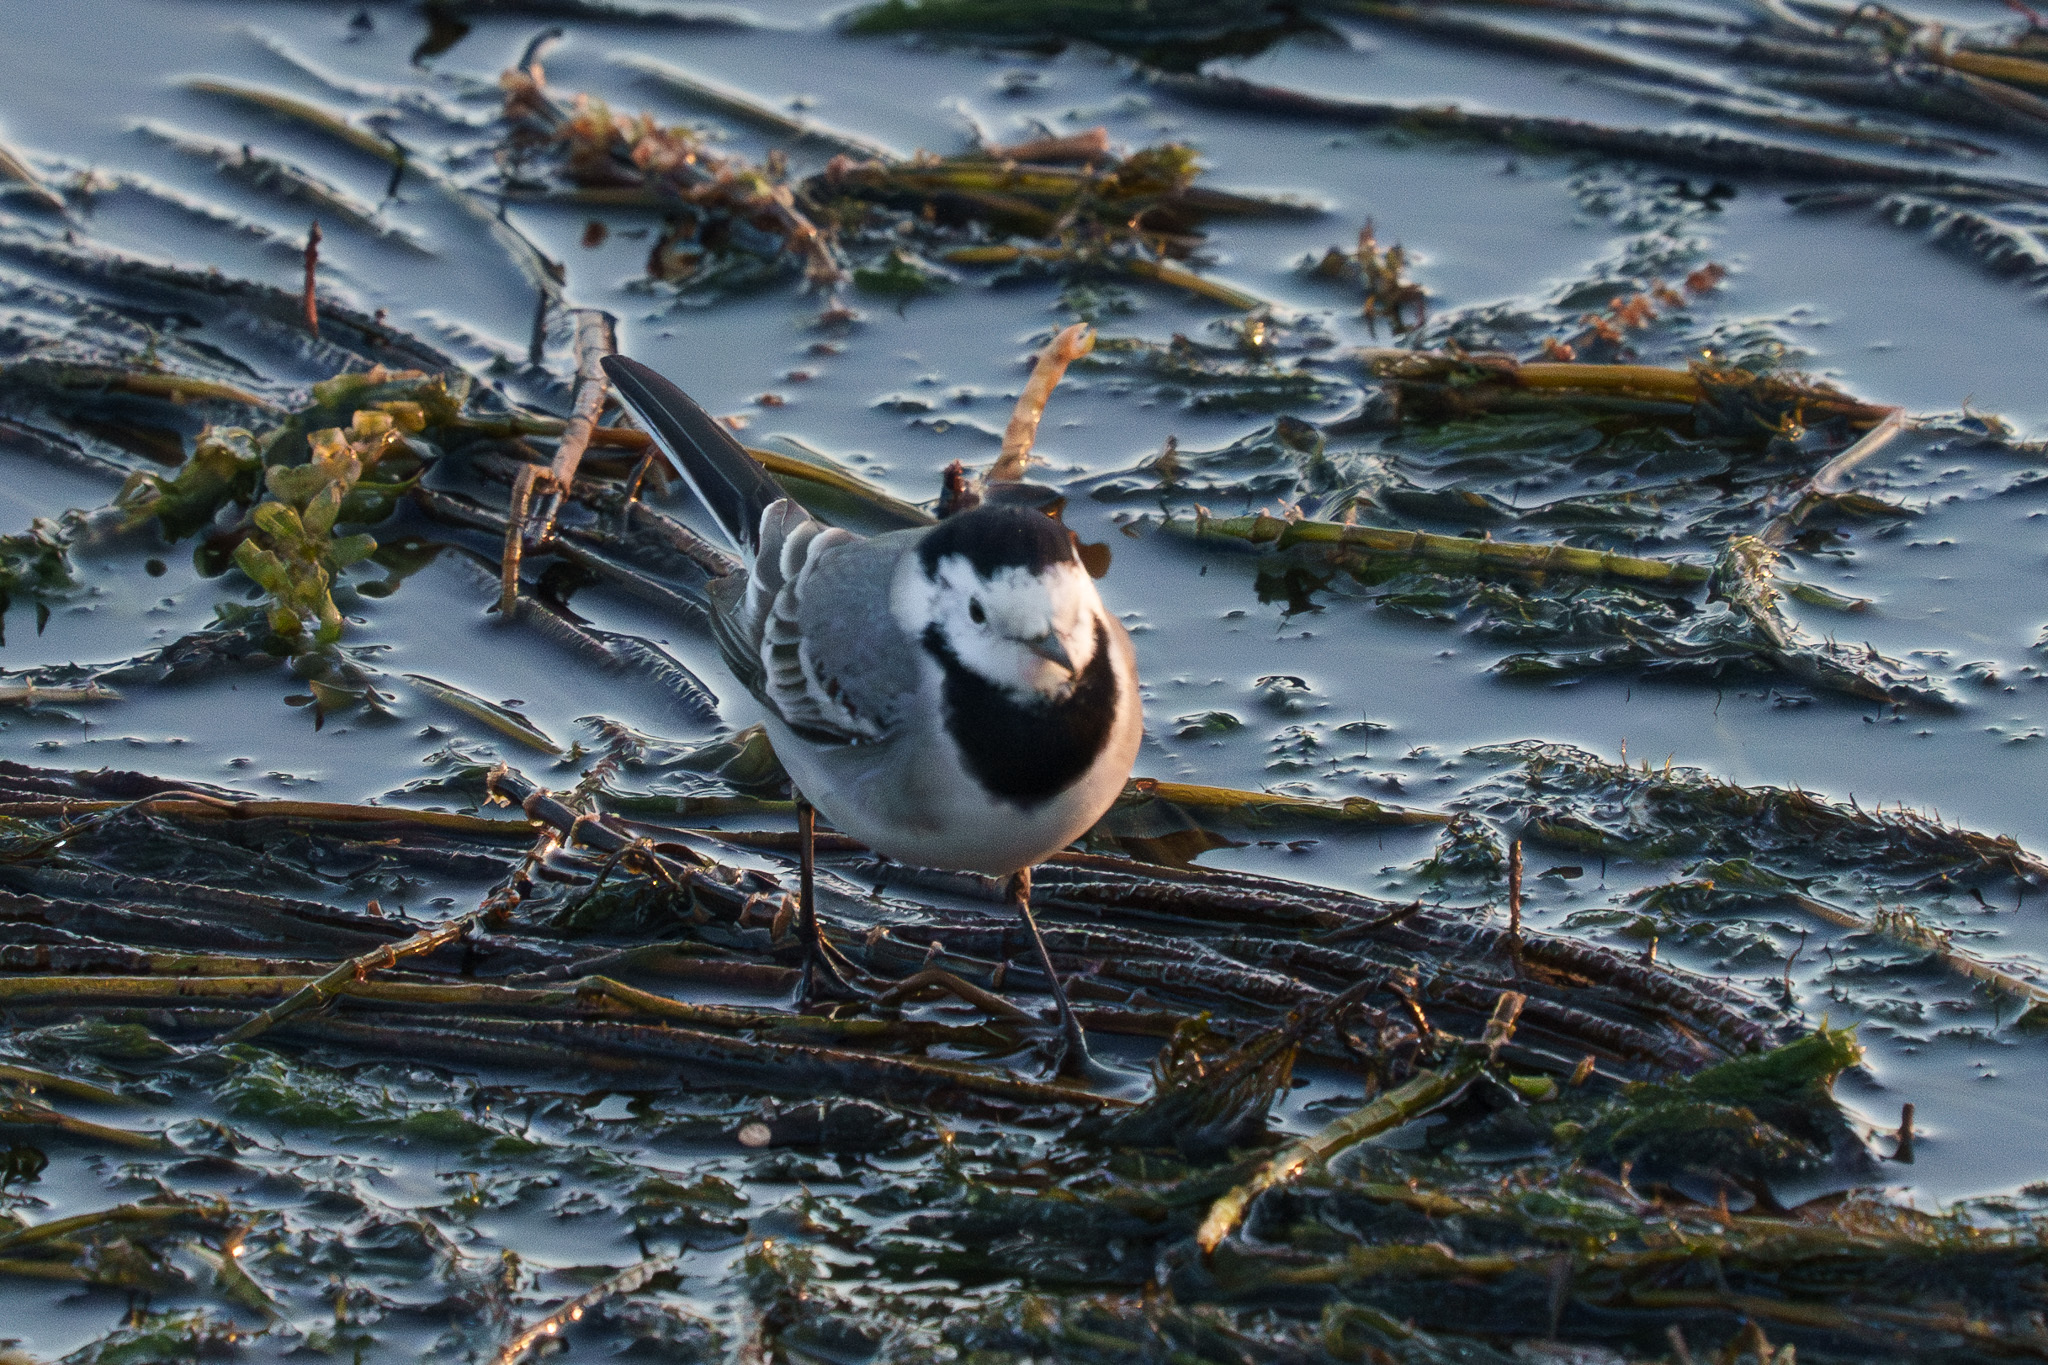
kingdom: Animalia
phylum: Chordata
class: Aves
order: Passeriformes
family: Motacillidae
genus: Motacilla
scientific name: Motacilla alba
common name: White wagtail
